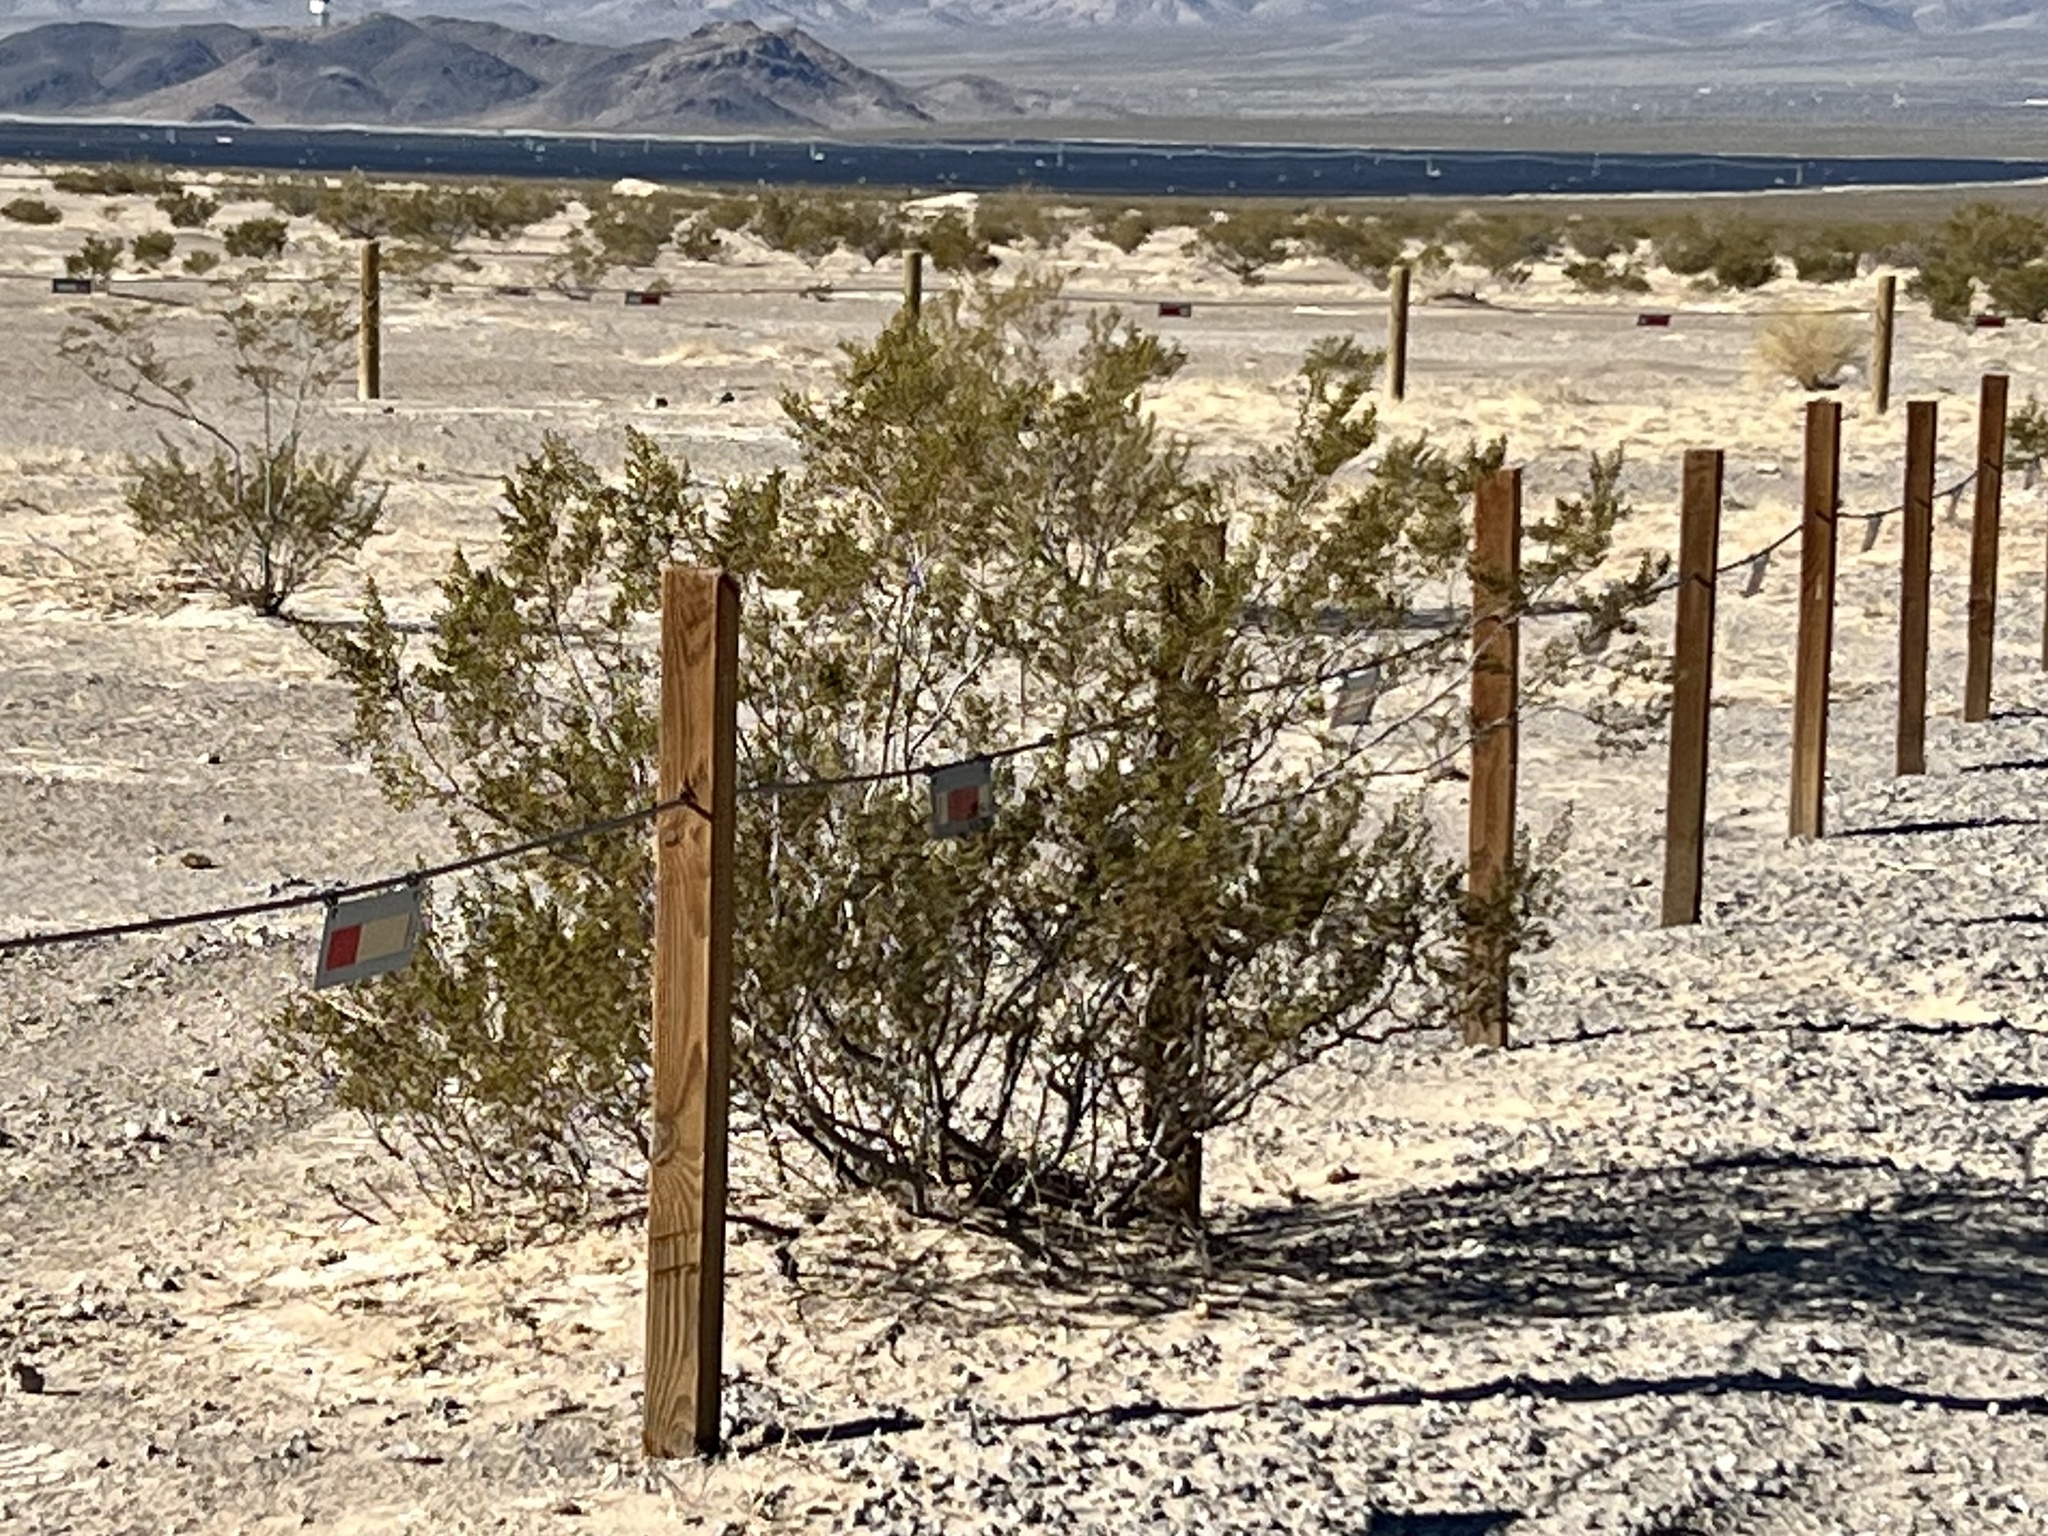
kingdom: Plantae
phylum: Tracheophyta
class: Magnoliopsida
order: Zygophyllales
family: Zygophyllaceae
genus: Larrea
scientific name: Larrea tridentata
